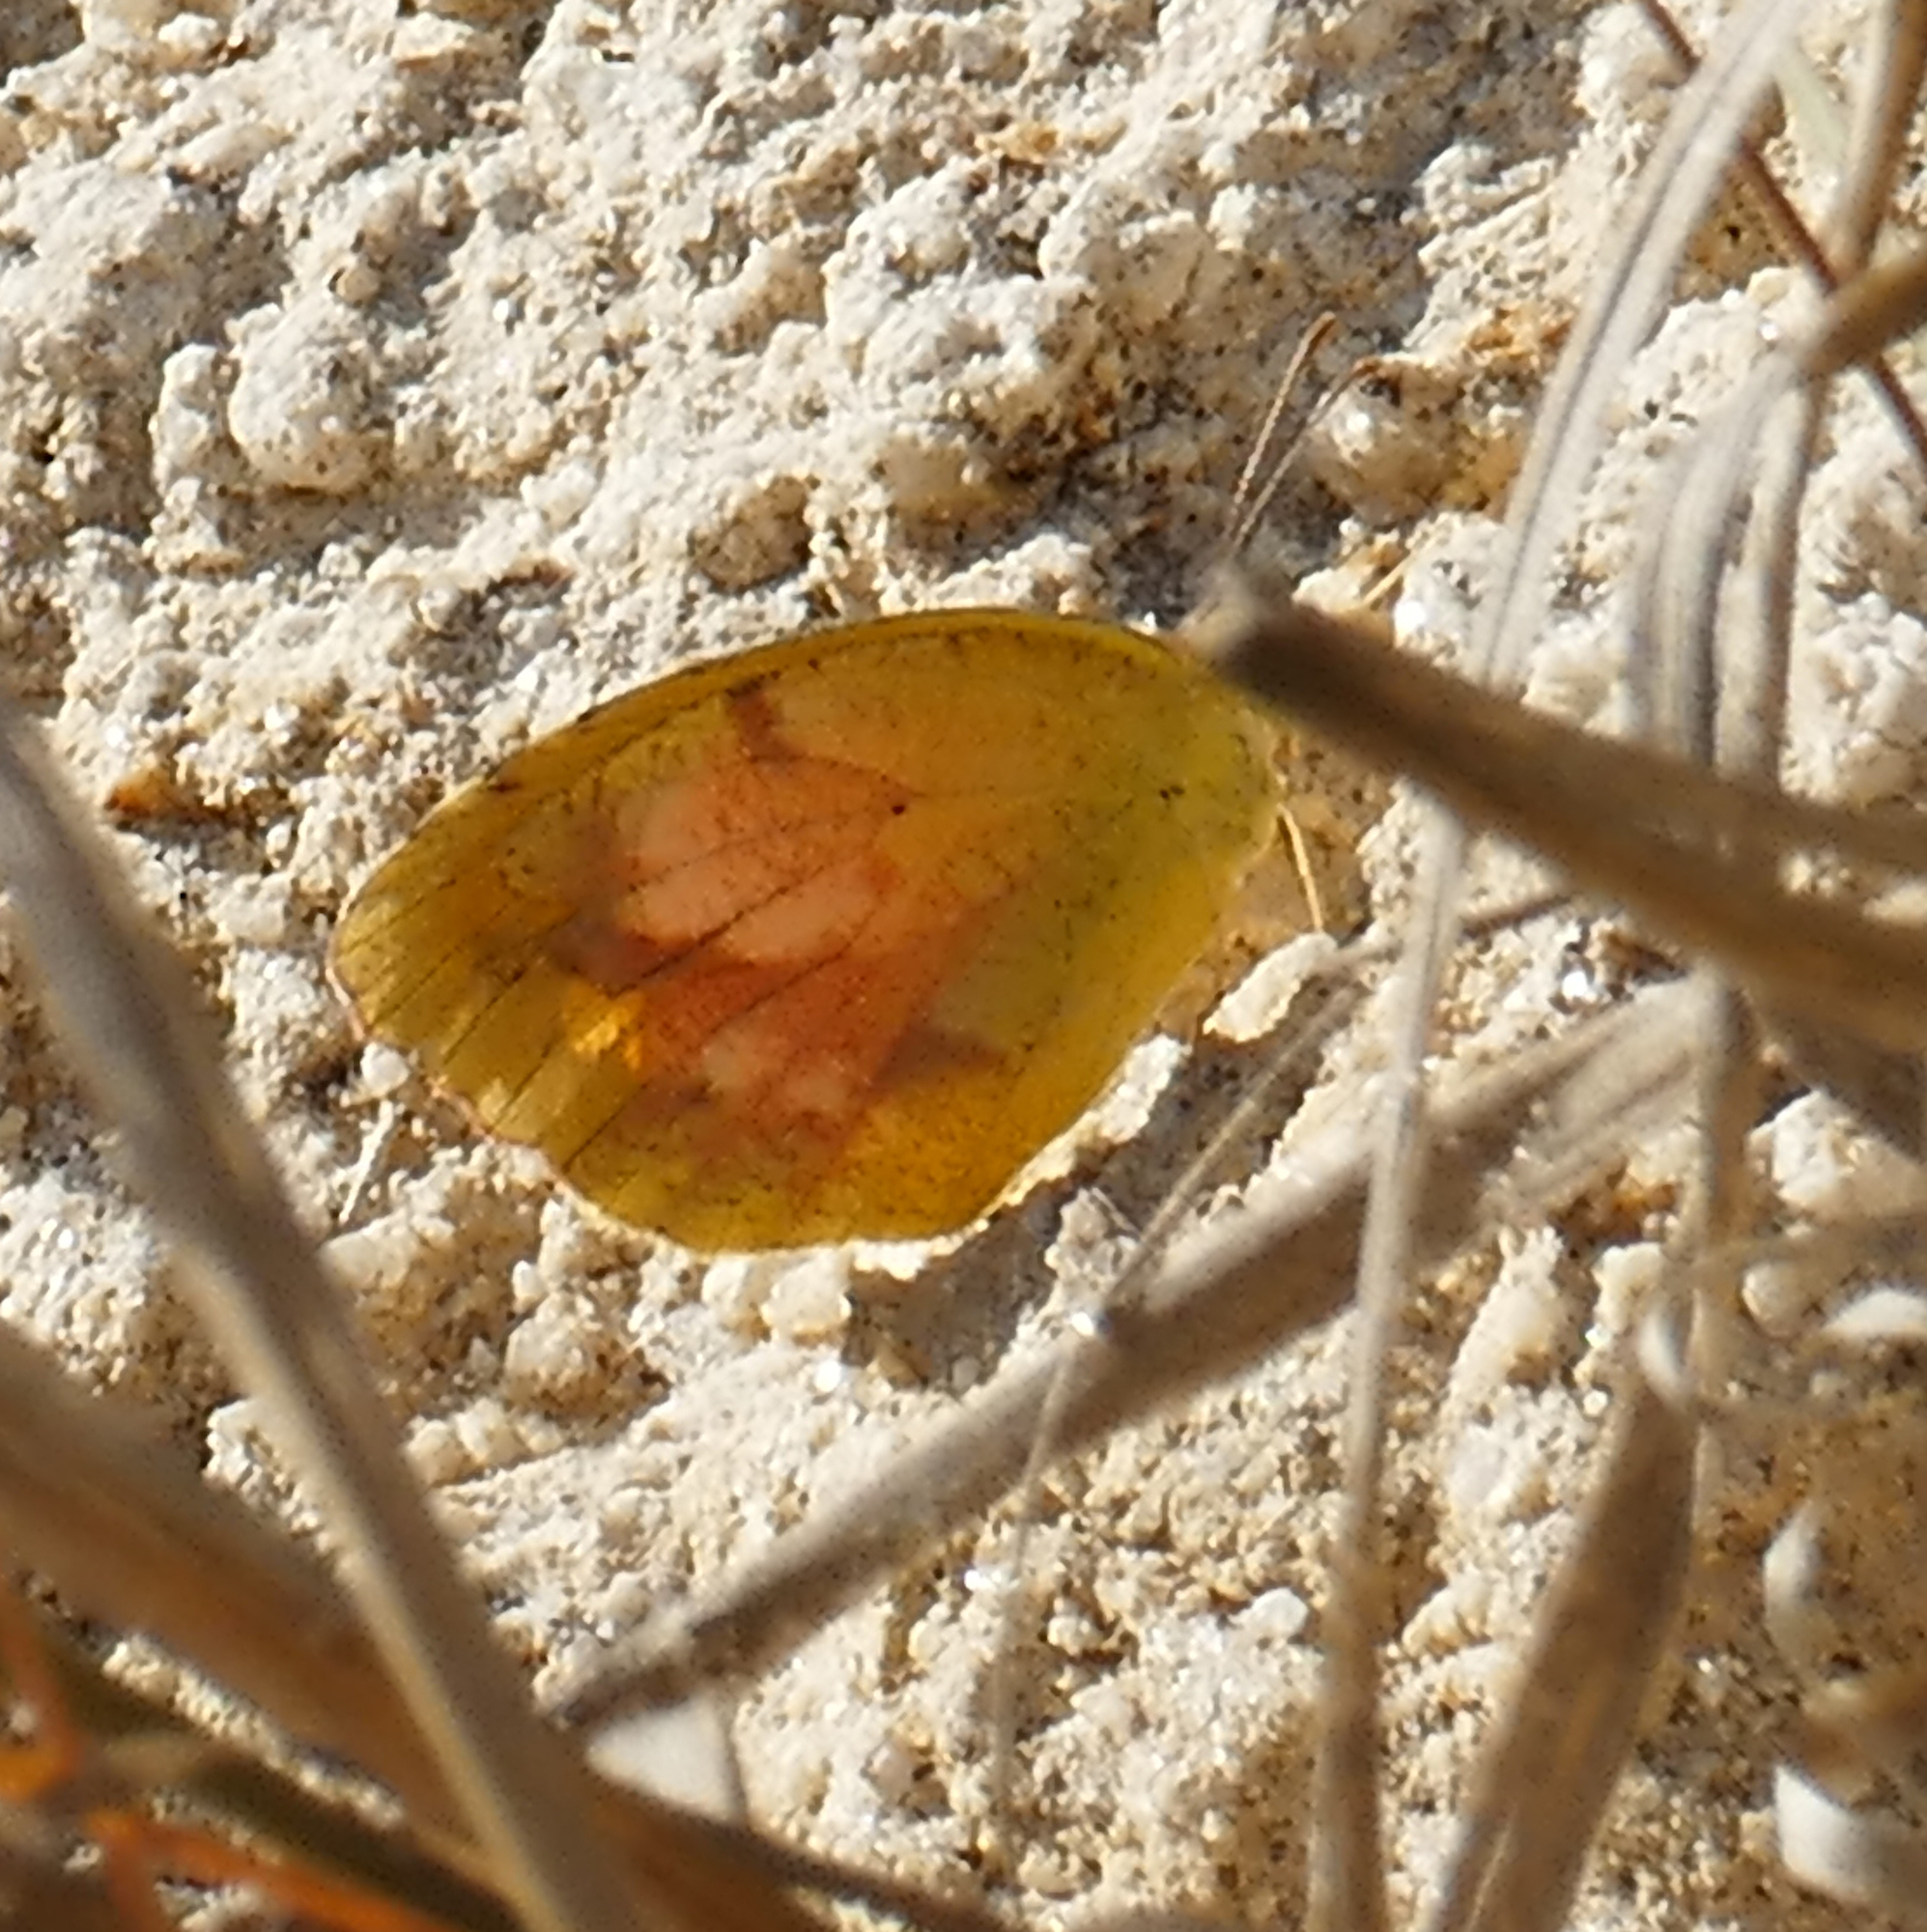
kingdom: Animalia
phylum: Arthropoda
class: Insecta
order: Lepidoptera
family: Pieridae
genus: Abaeis
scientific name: Abaeis nicippe
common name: Sleepy orange
